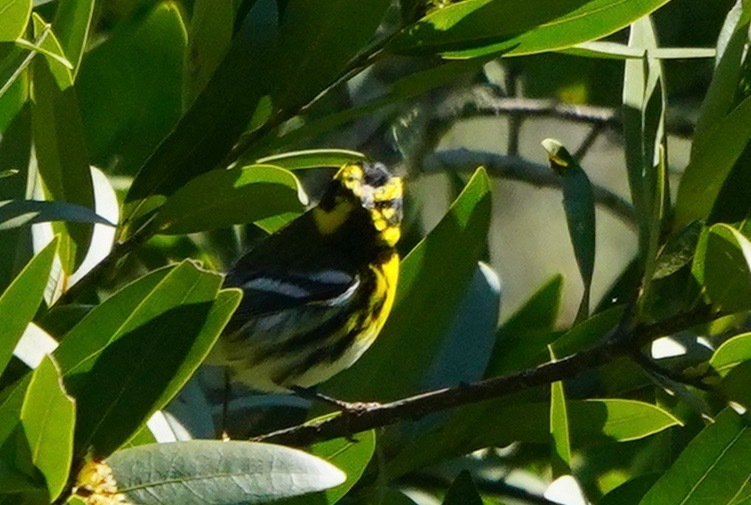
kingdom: Animalia
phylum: Chordata
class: Aves
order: Passeriformes
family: Parulidae
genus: Setophaga
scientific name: Setophaga townsendi
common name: Townsend's warbler
